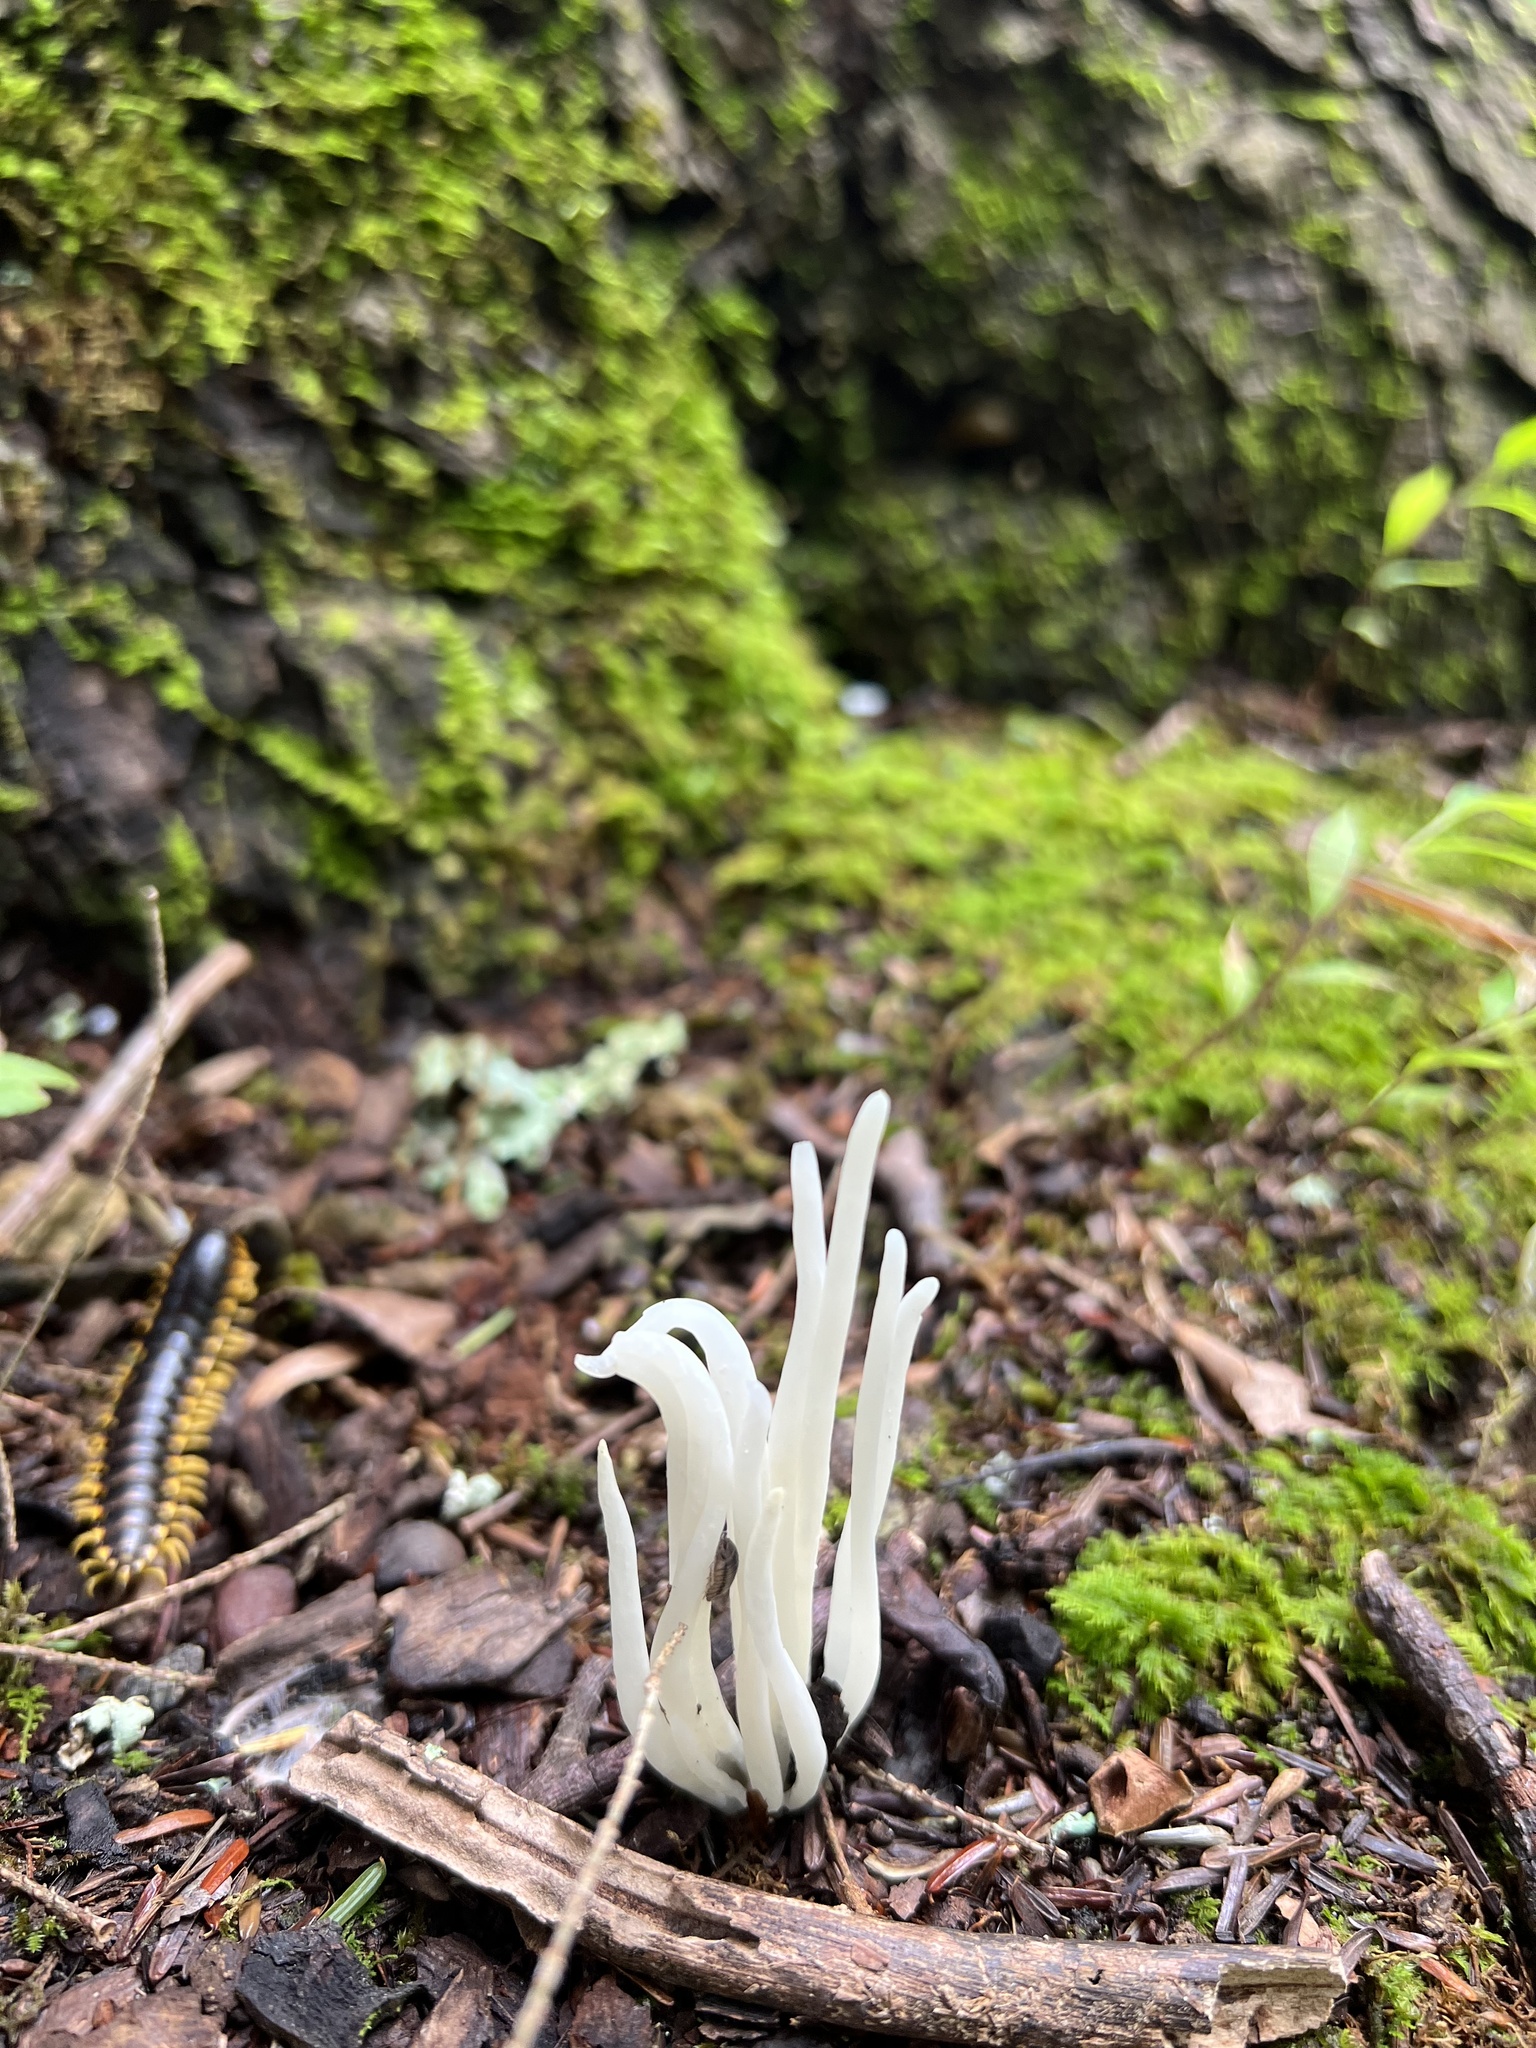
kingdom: Fungi
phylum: Basidiomycota
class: Agaricomycetes
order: Agaricales
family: Clavariaceae
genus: Clavaria
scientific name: Clavaria fragilis
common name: White spindles
